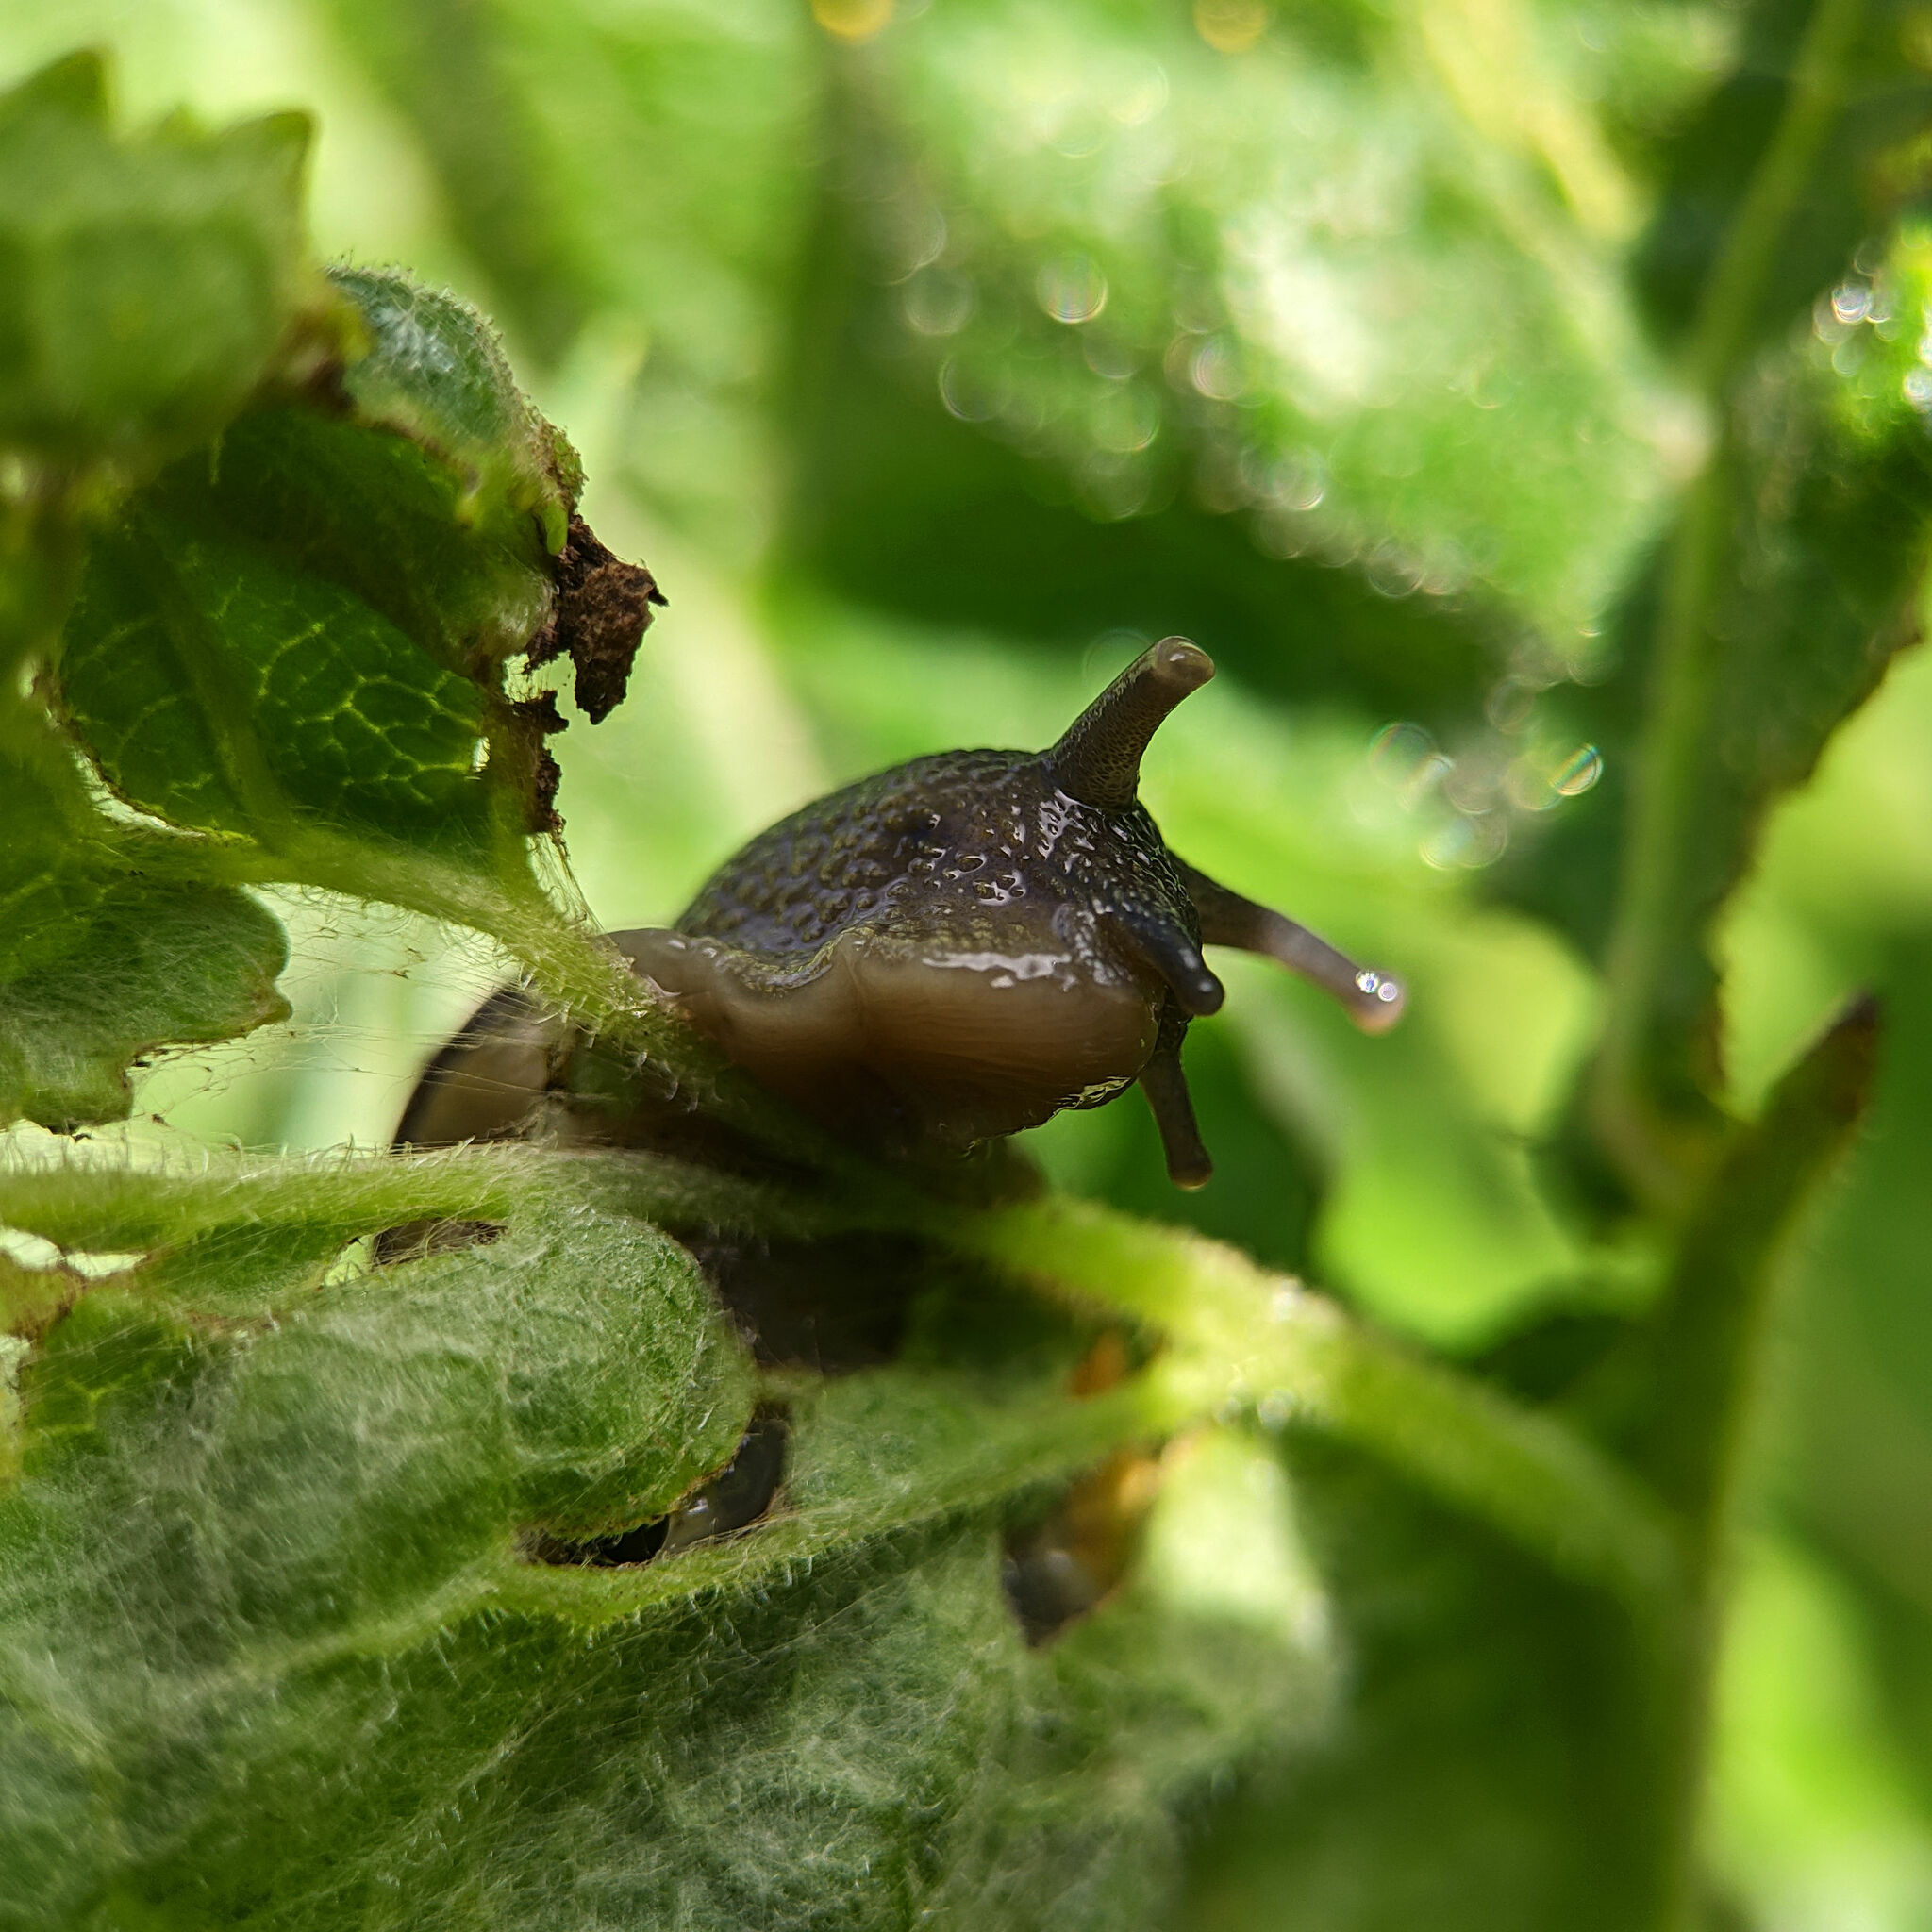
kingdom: Animalia
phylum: Mollusca
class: Gastropoda
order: Stylommatophora
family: Helicidae
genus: Cepaea
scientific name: Cepaea nemoralis
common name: Grovesnail
